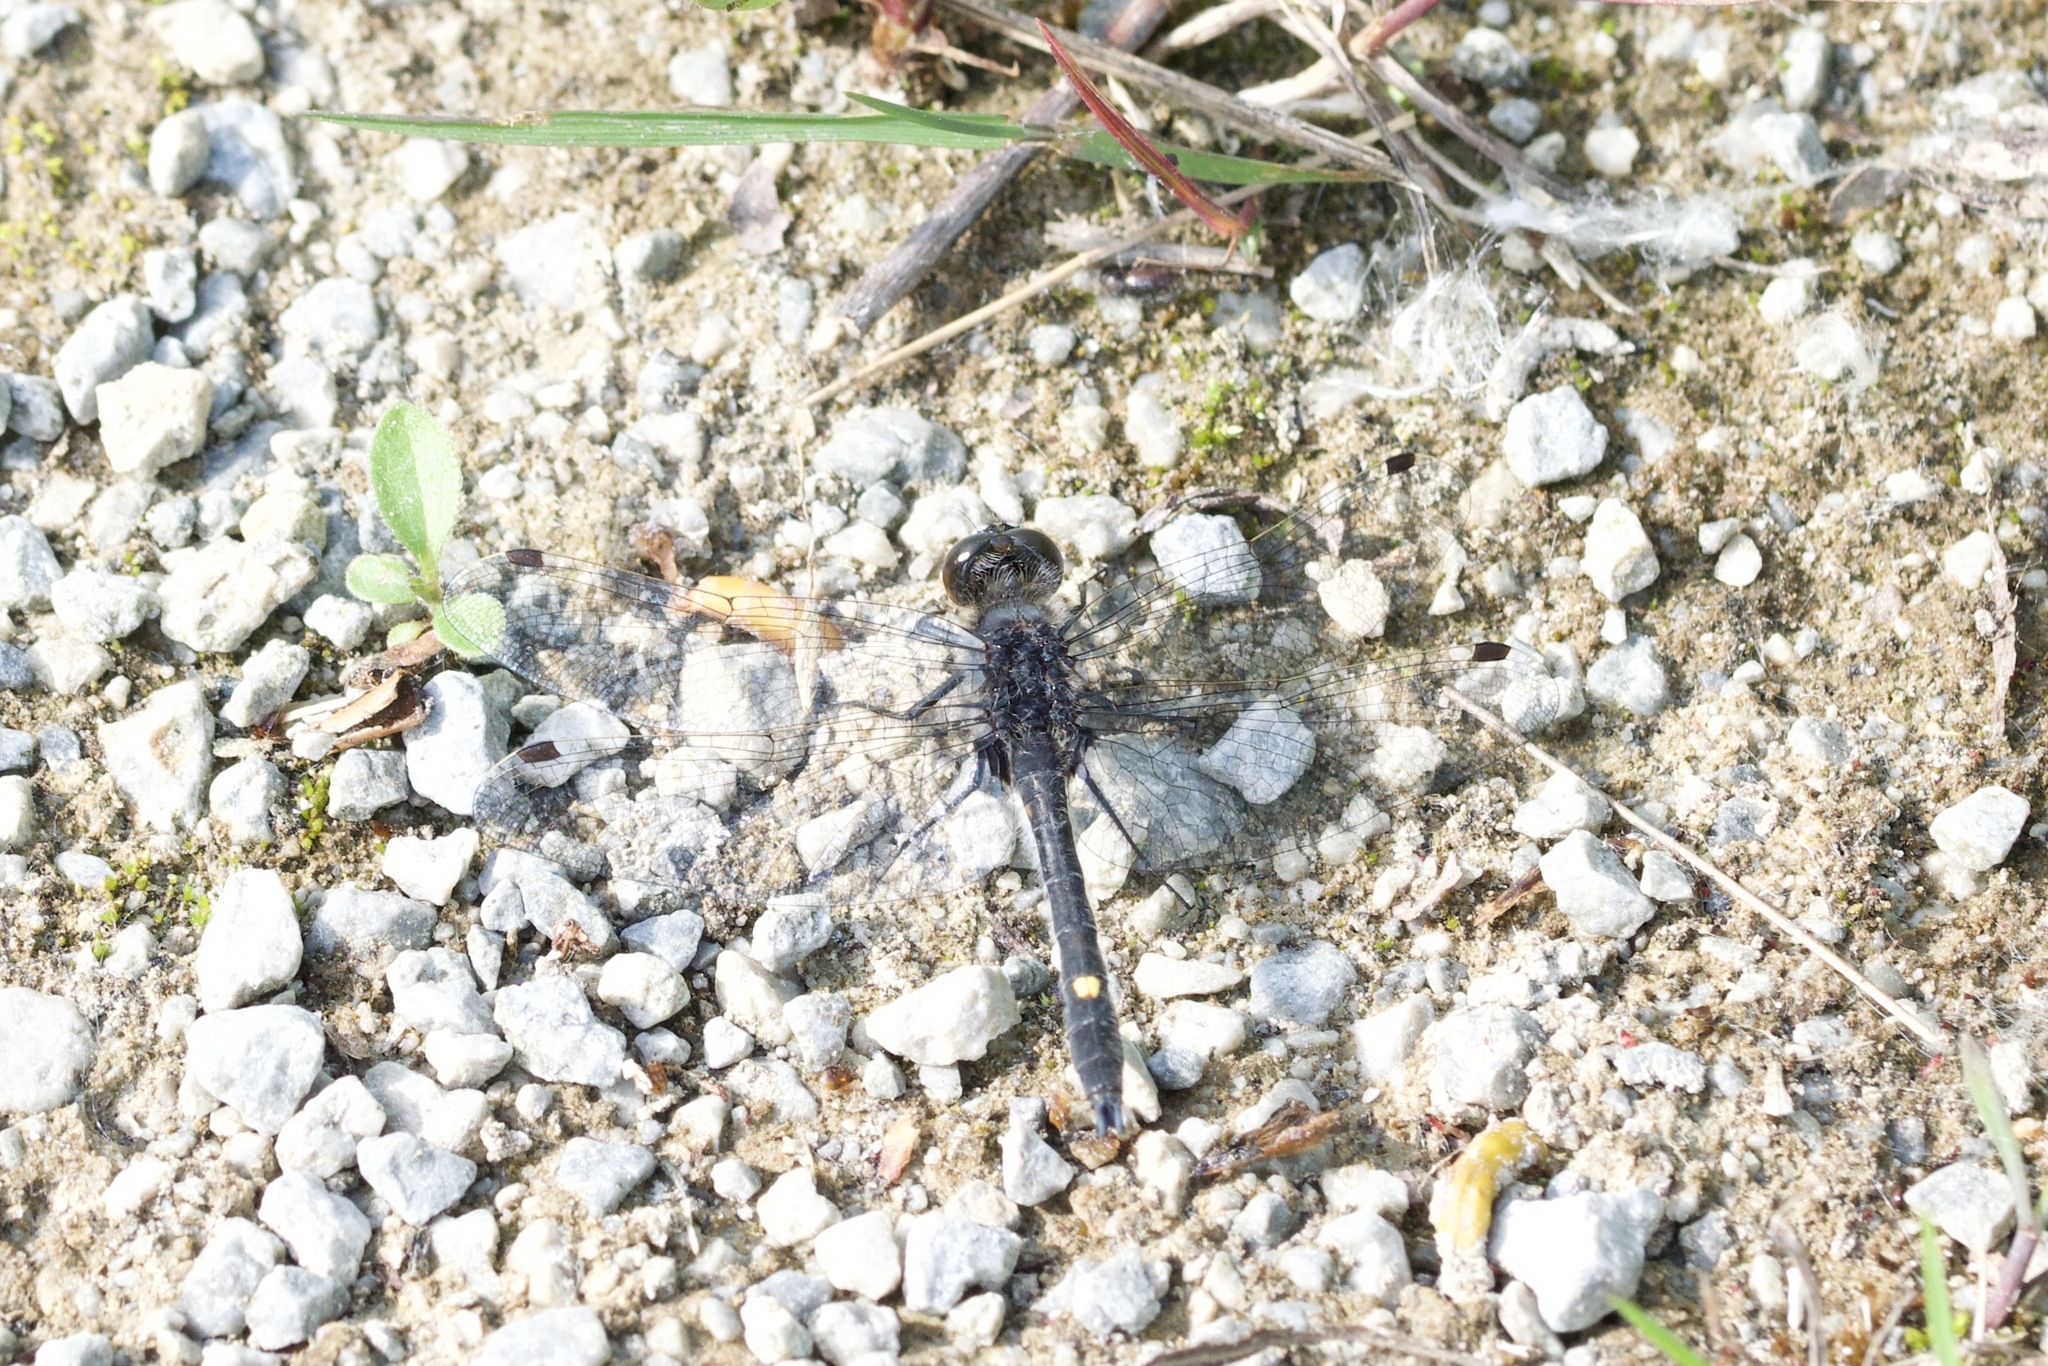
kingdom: Animalia
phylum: Arthropoda
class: Insecta
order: Odonata
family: Libellulidae
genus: Leucorrhinia
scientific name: Leucorrhinia intacta
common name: Dot-tailed whiteface
